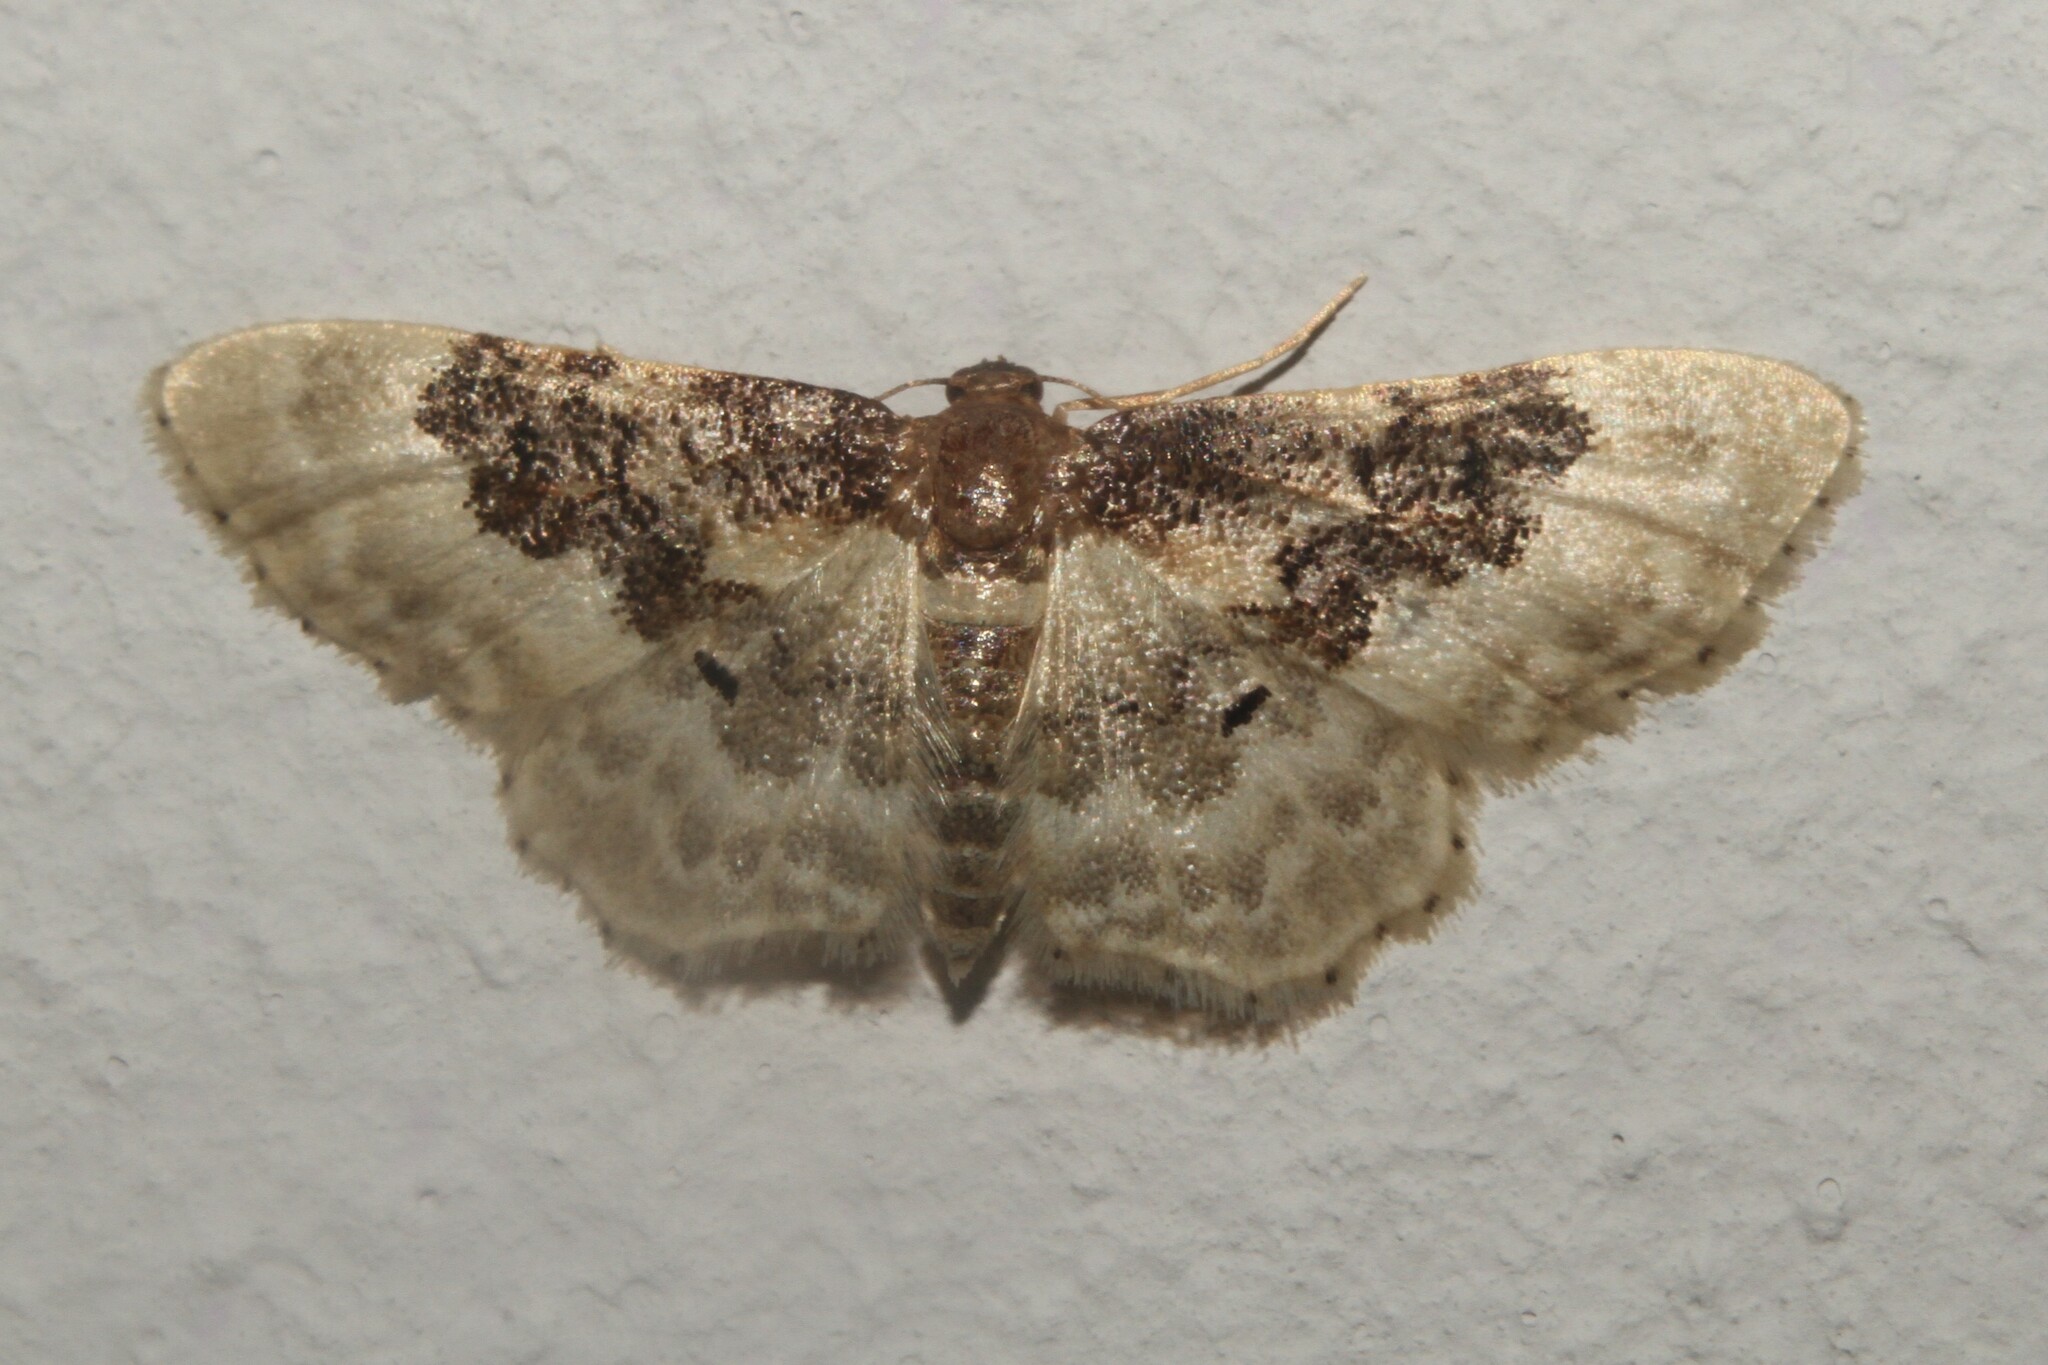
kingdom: Animalia
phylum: Arthropoda
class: Insecta
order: Lepidoptera
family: Geometridae
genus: Idaea
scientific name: Idaea rusticata
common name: Least carpet
